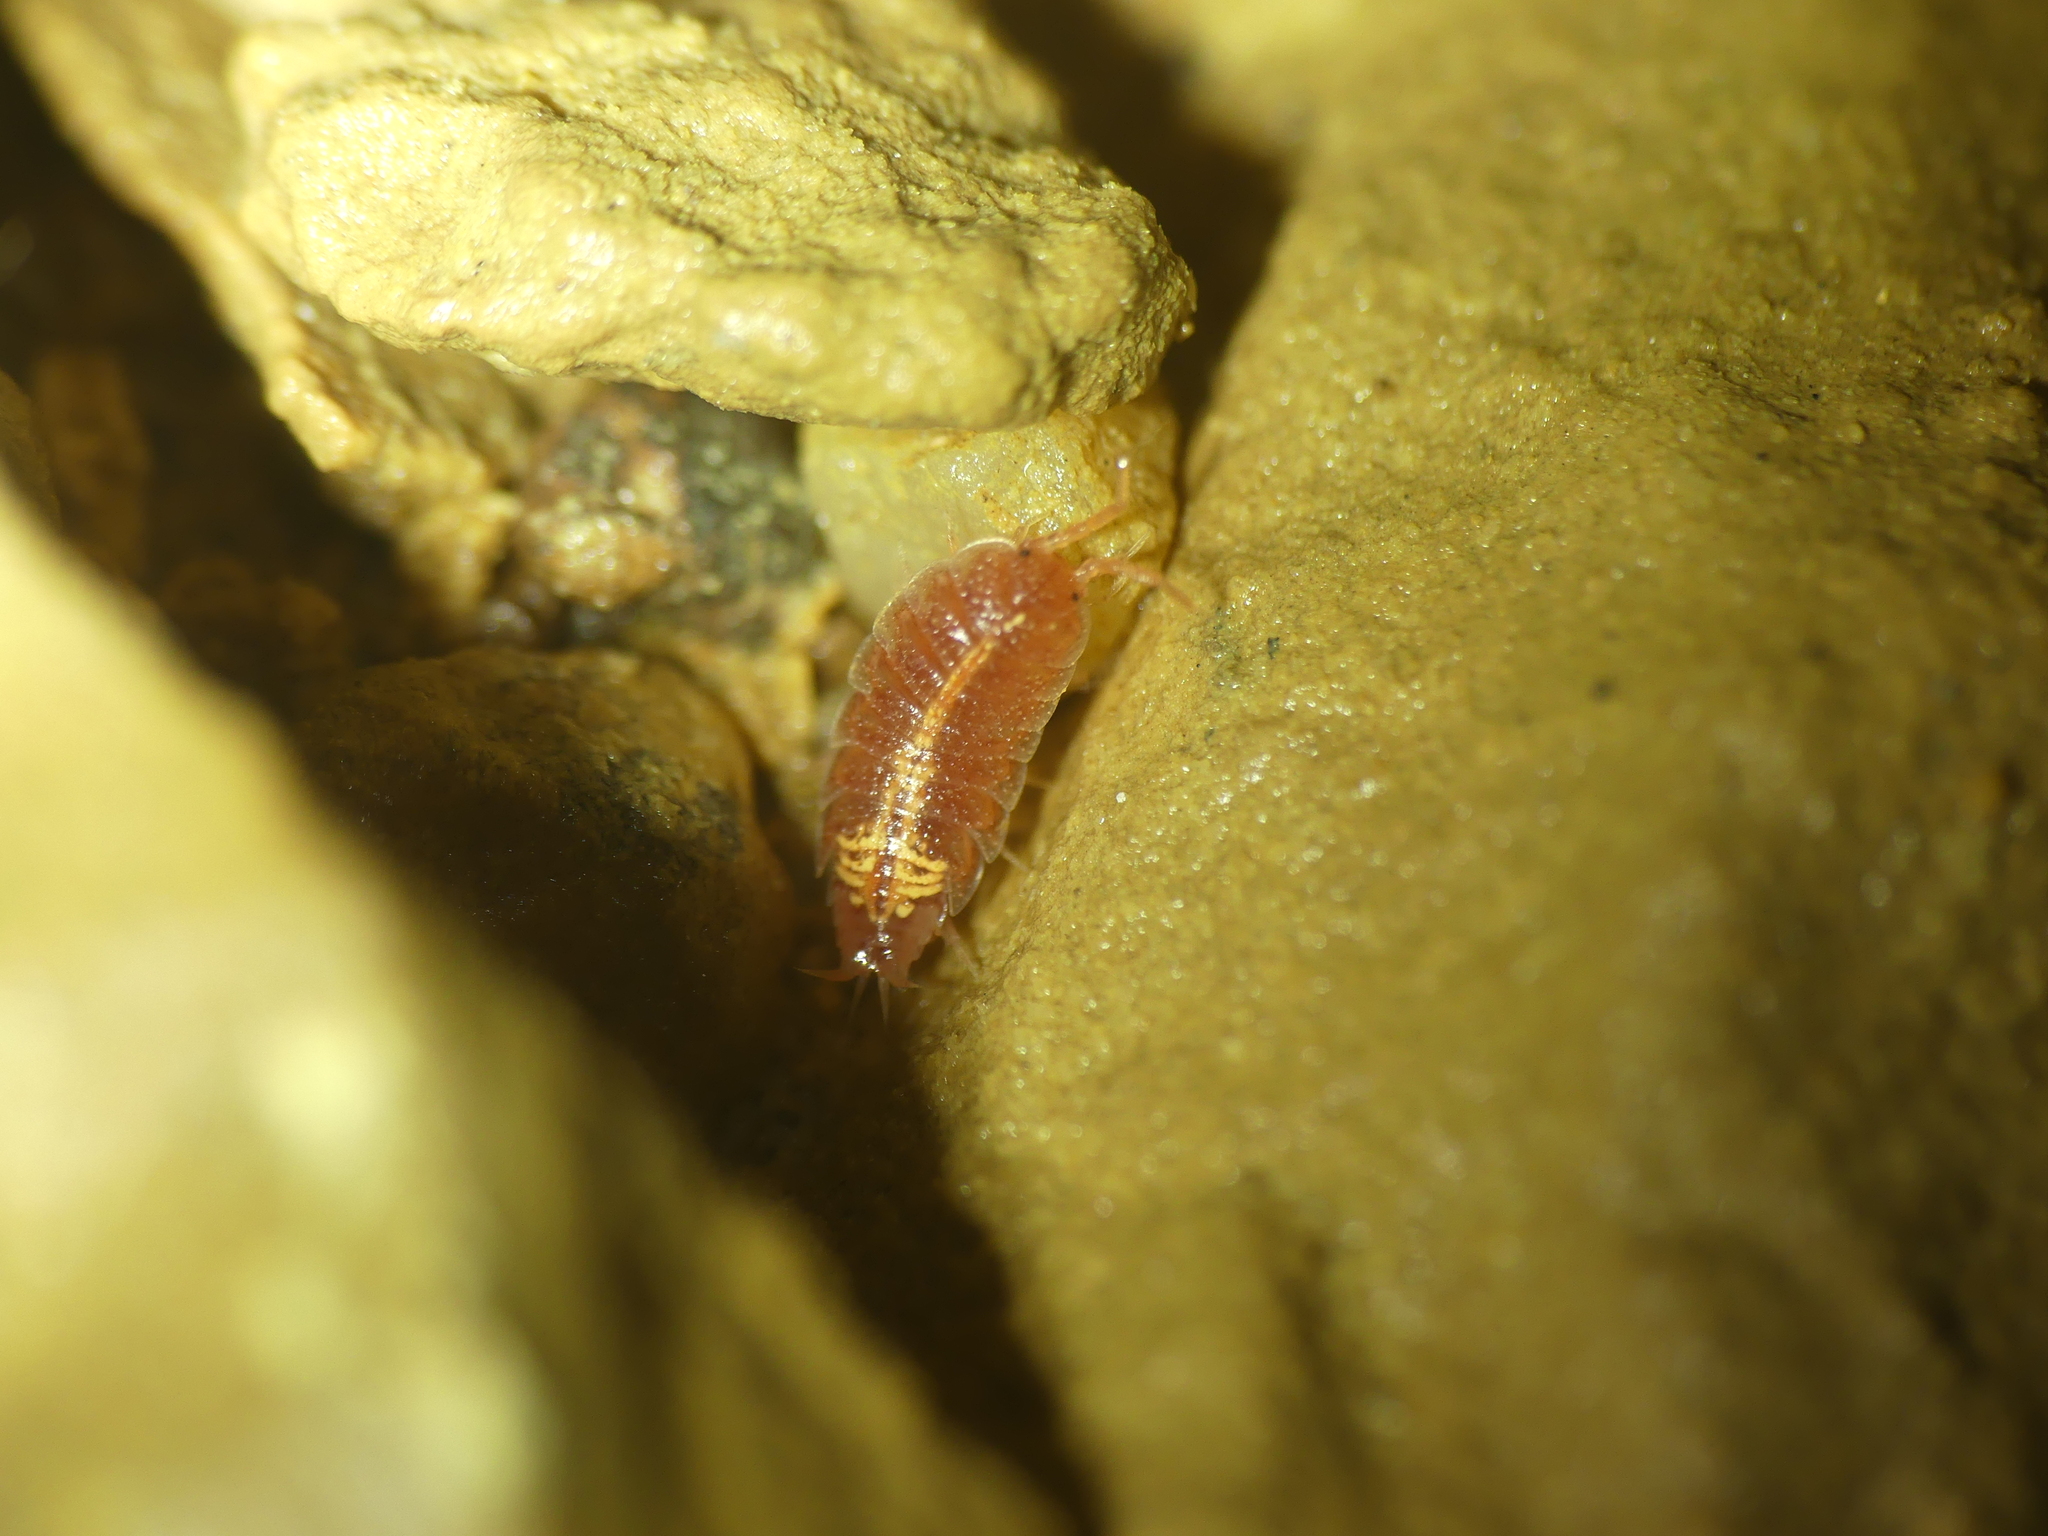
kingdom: Animalia
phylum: Arthropoda
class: Malacostraca
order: Isopoda
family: Trichoniscidae
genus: Androniscus
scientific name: Androniscus dentiger
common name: Rosy woodlouse
